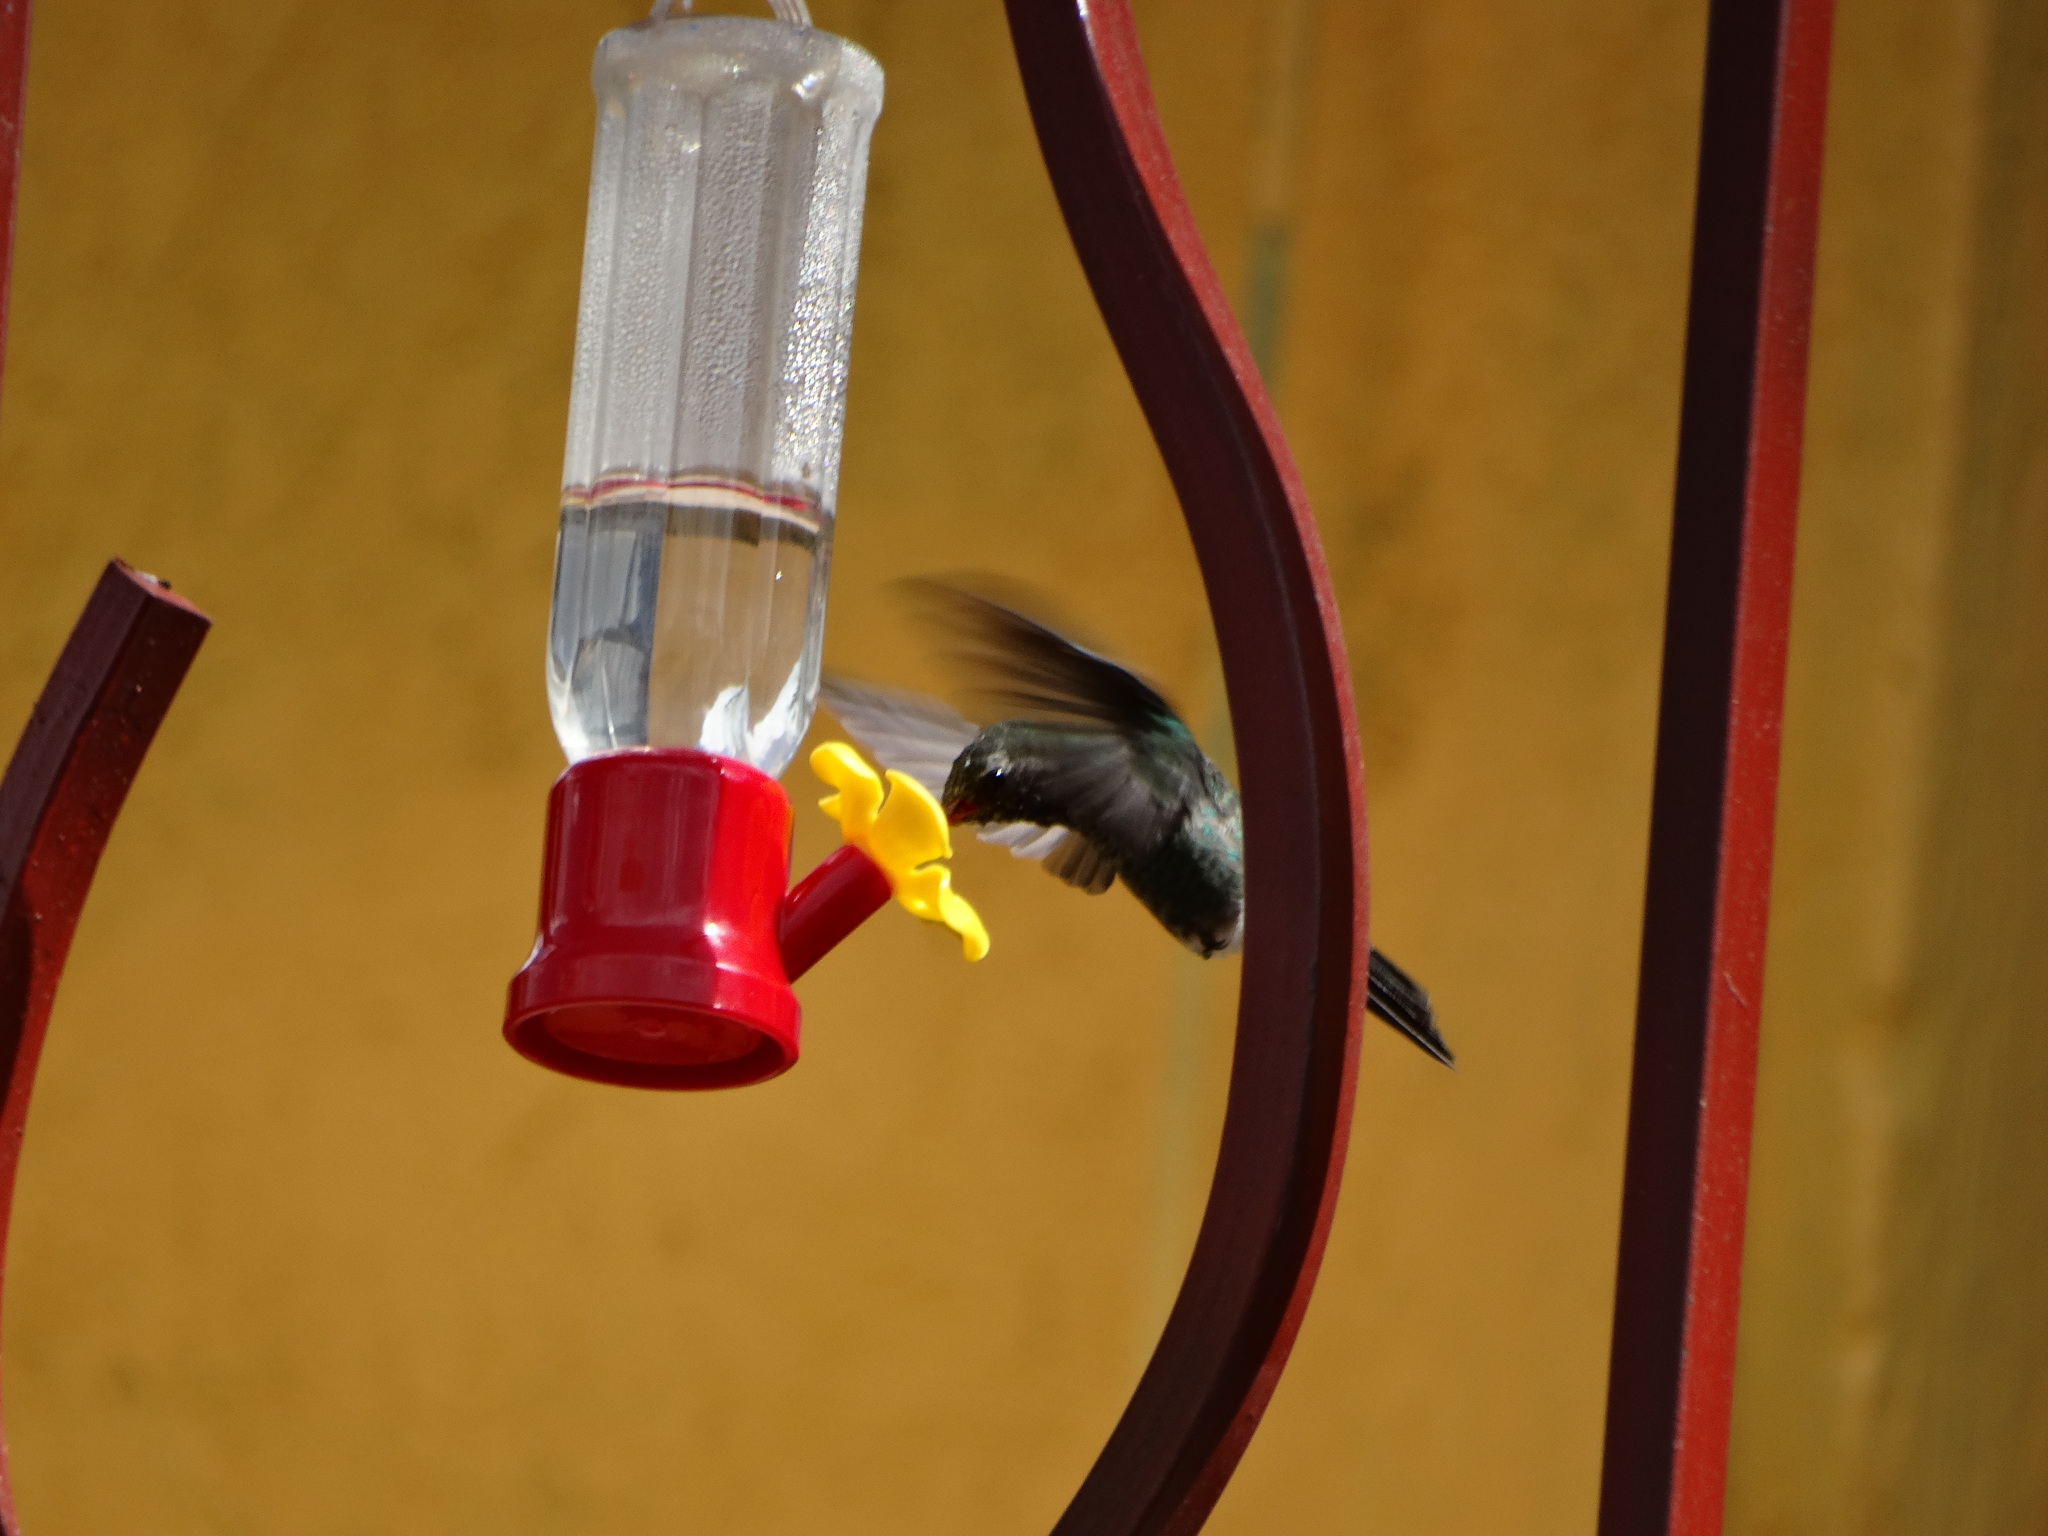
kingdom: Animalia
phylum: Chordata
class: Aves
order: Apodiformes
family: Trochilidae
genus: Cynanthus
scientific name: Cynanthus latirostris
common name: Broad-billed hummingbird
